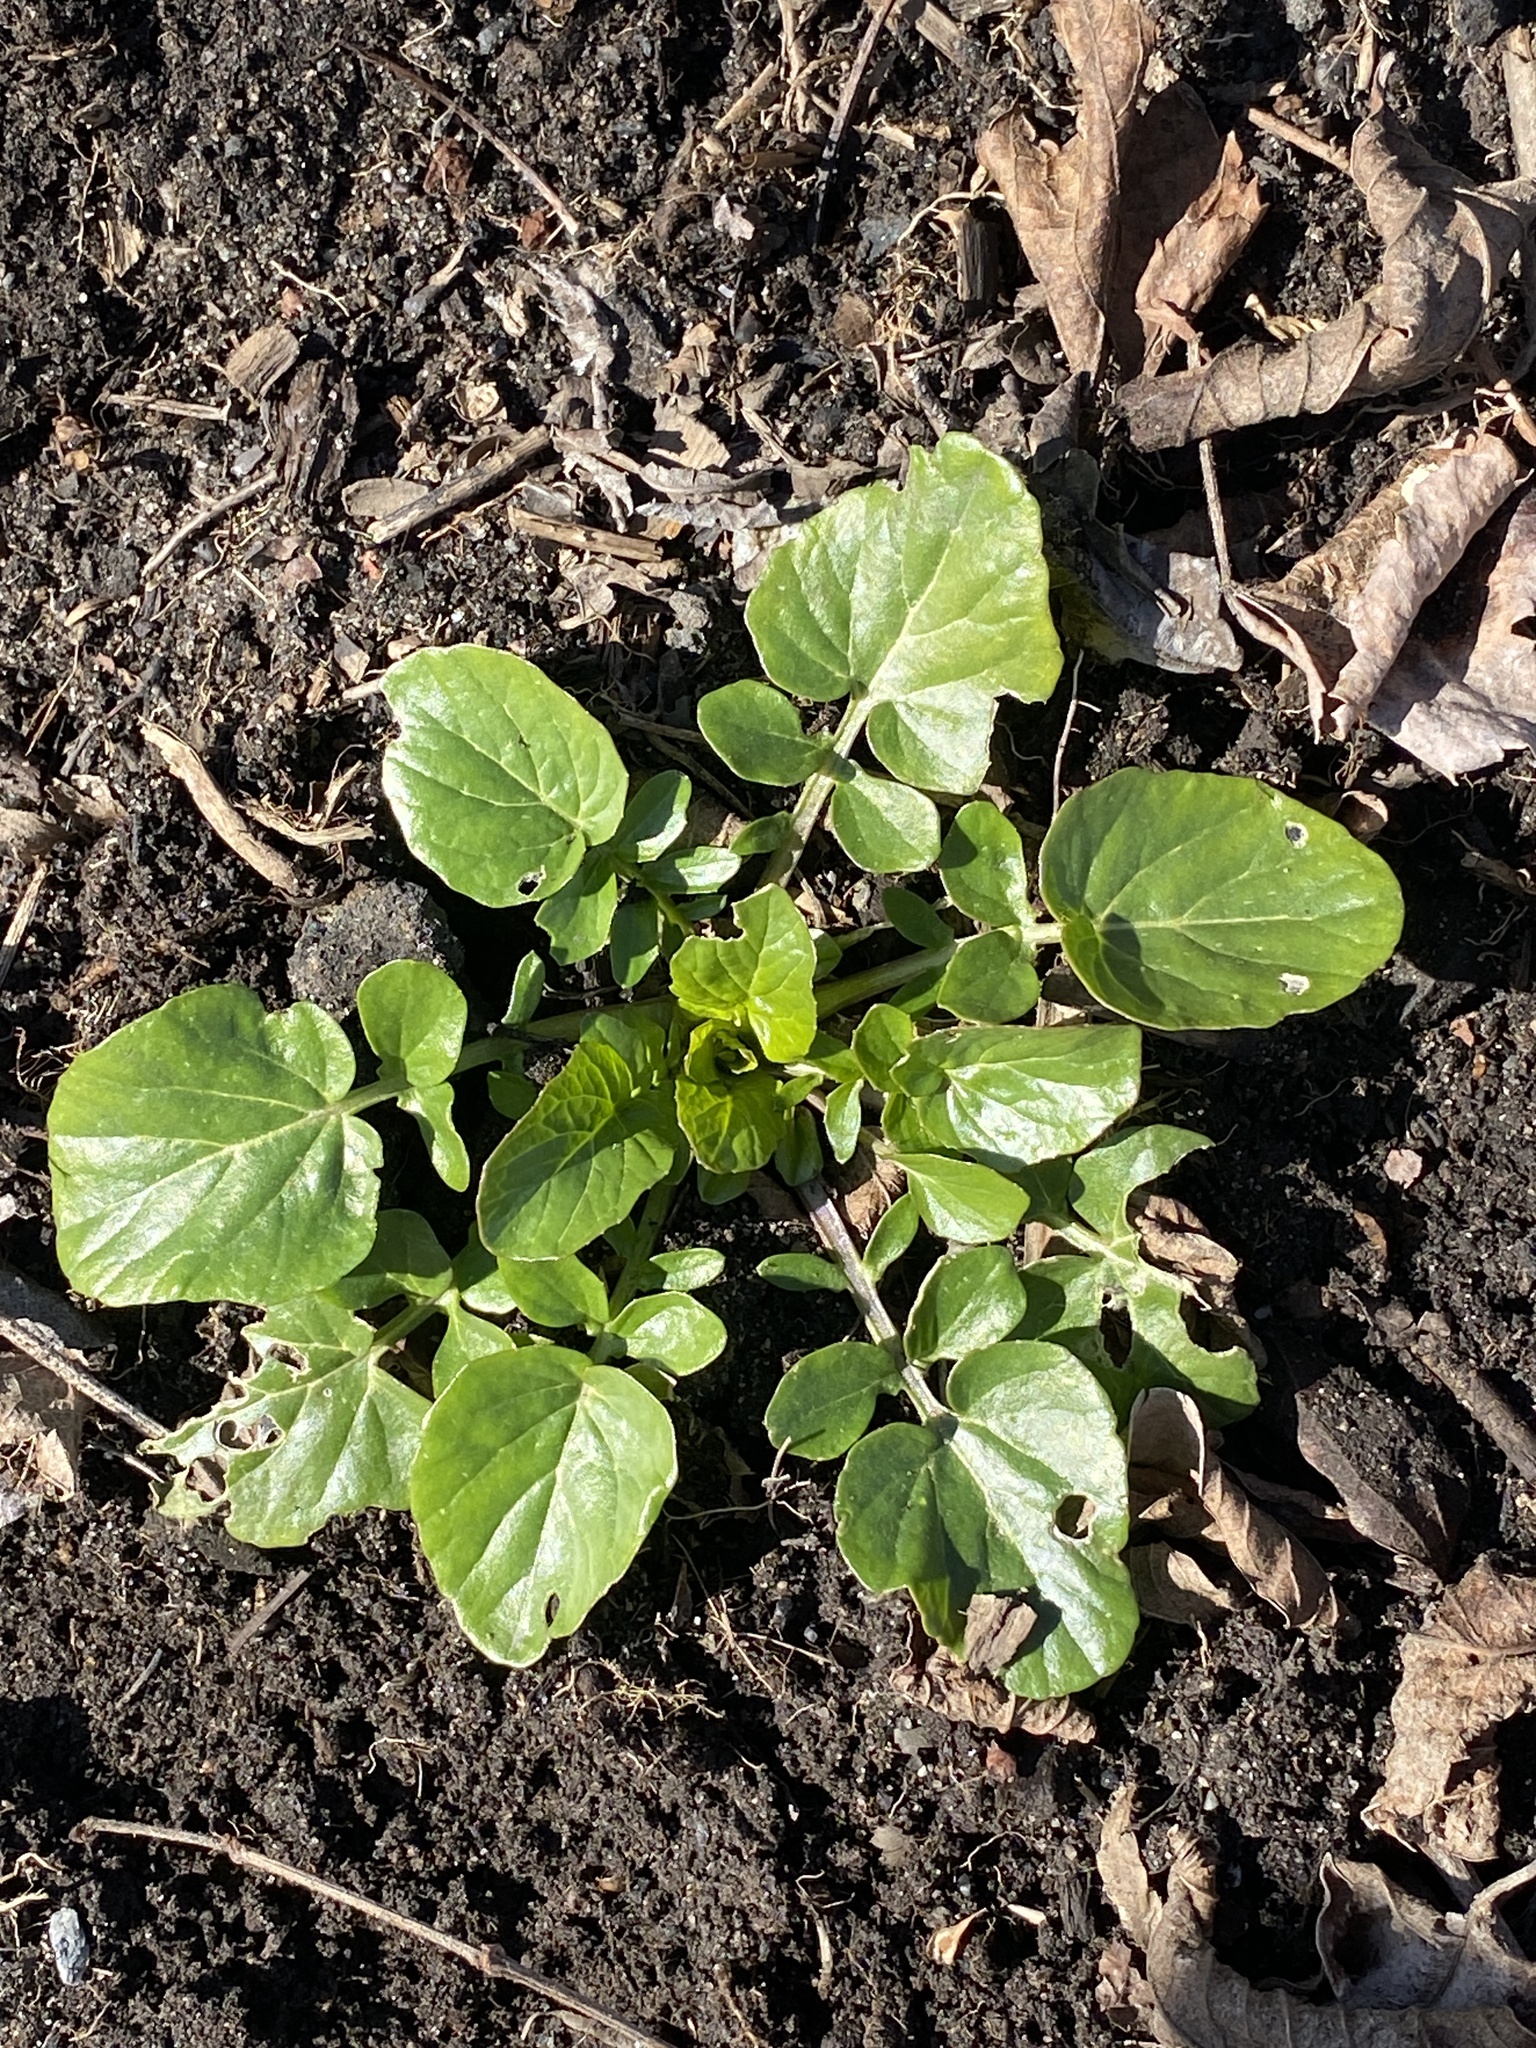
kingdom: Plantae
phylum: Tracheophyta
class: Magnoliopsida
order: Brassicales
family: Brassicaceae
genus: Barbarea
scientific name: Barbarea vulgaris
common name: Cressy-greens
